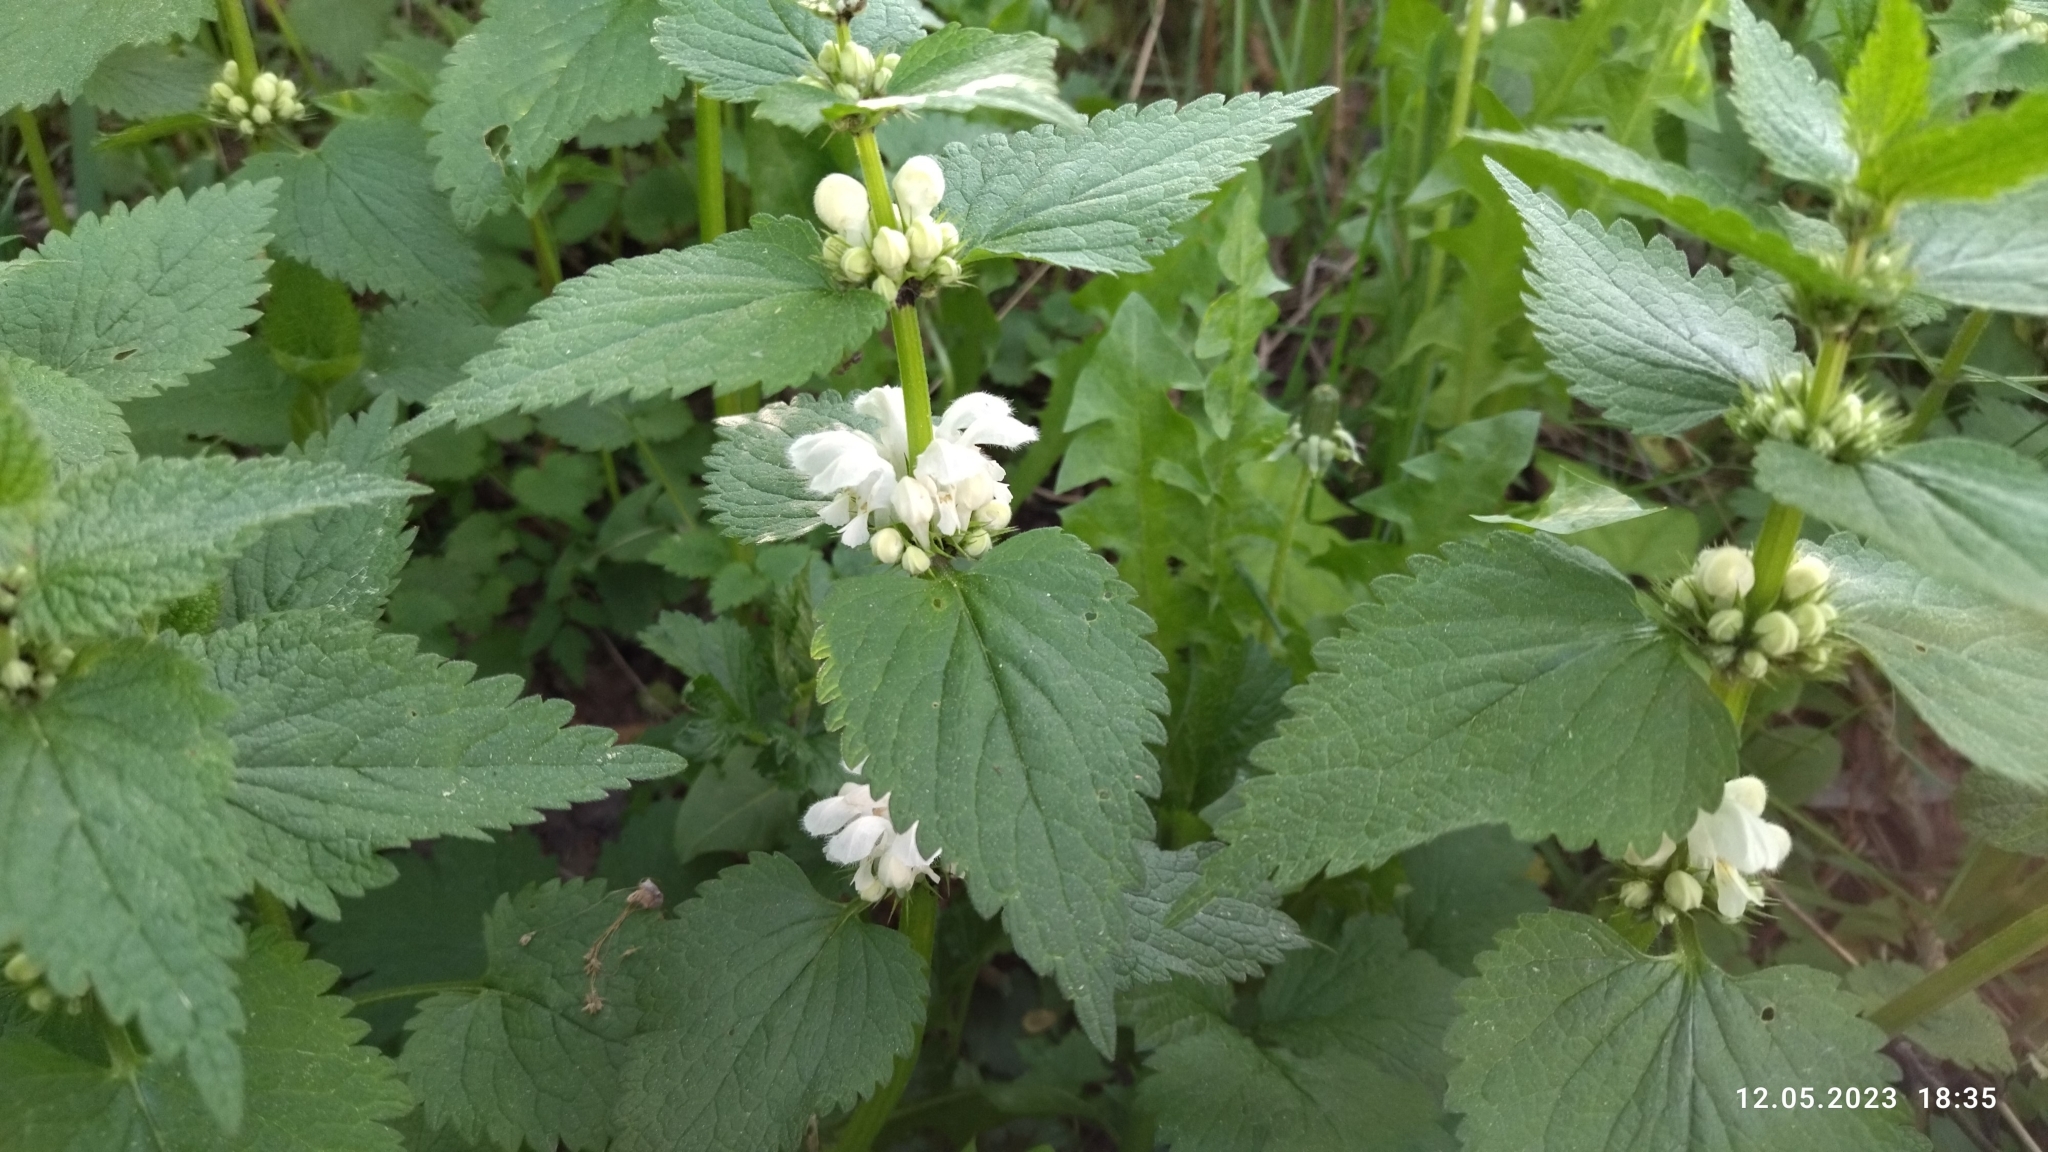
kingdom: Plantae
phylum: Tracheophyta
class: Magnoliopsida
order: Lamiales
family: Lamiaceae
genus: Lamium
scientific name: Lamium album
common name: White dead-nettle
